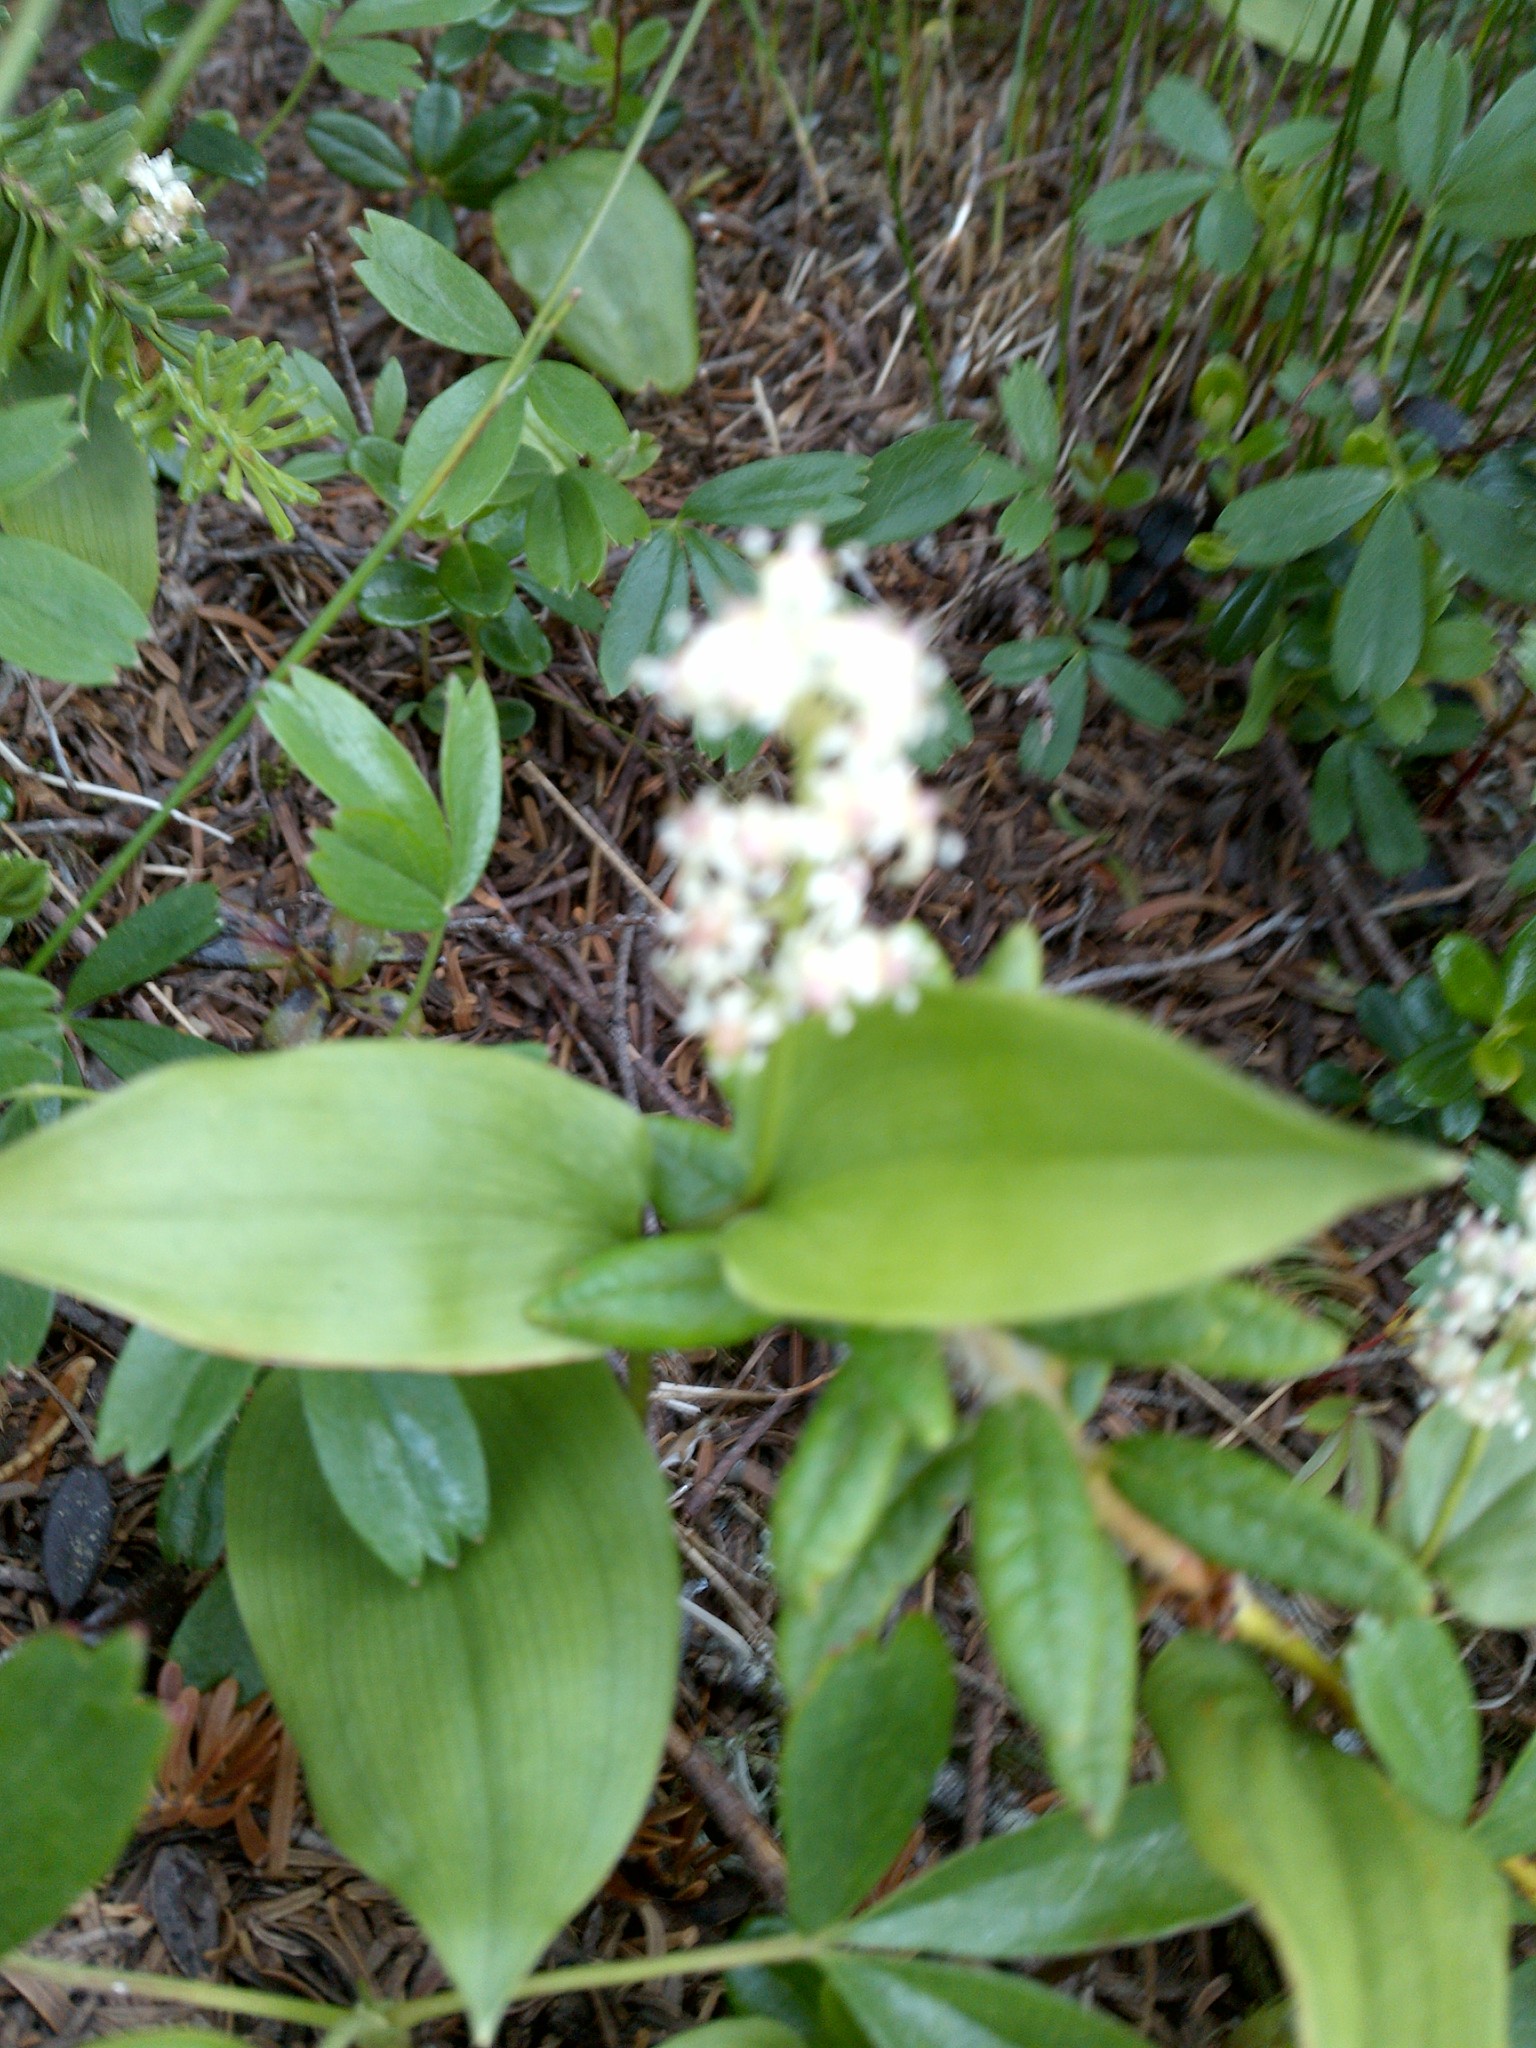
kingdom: Plantae
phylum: Tracheophyta
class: Liliopsida
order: Asparagales
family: Asparagaceae
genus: Maianthemum
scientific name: Maianthemum canadense
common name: False lily-of-the-valley
